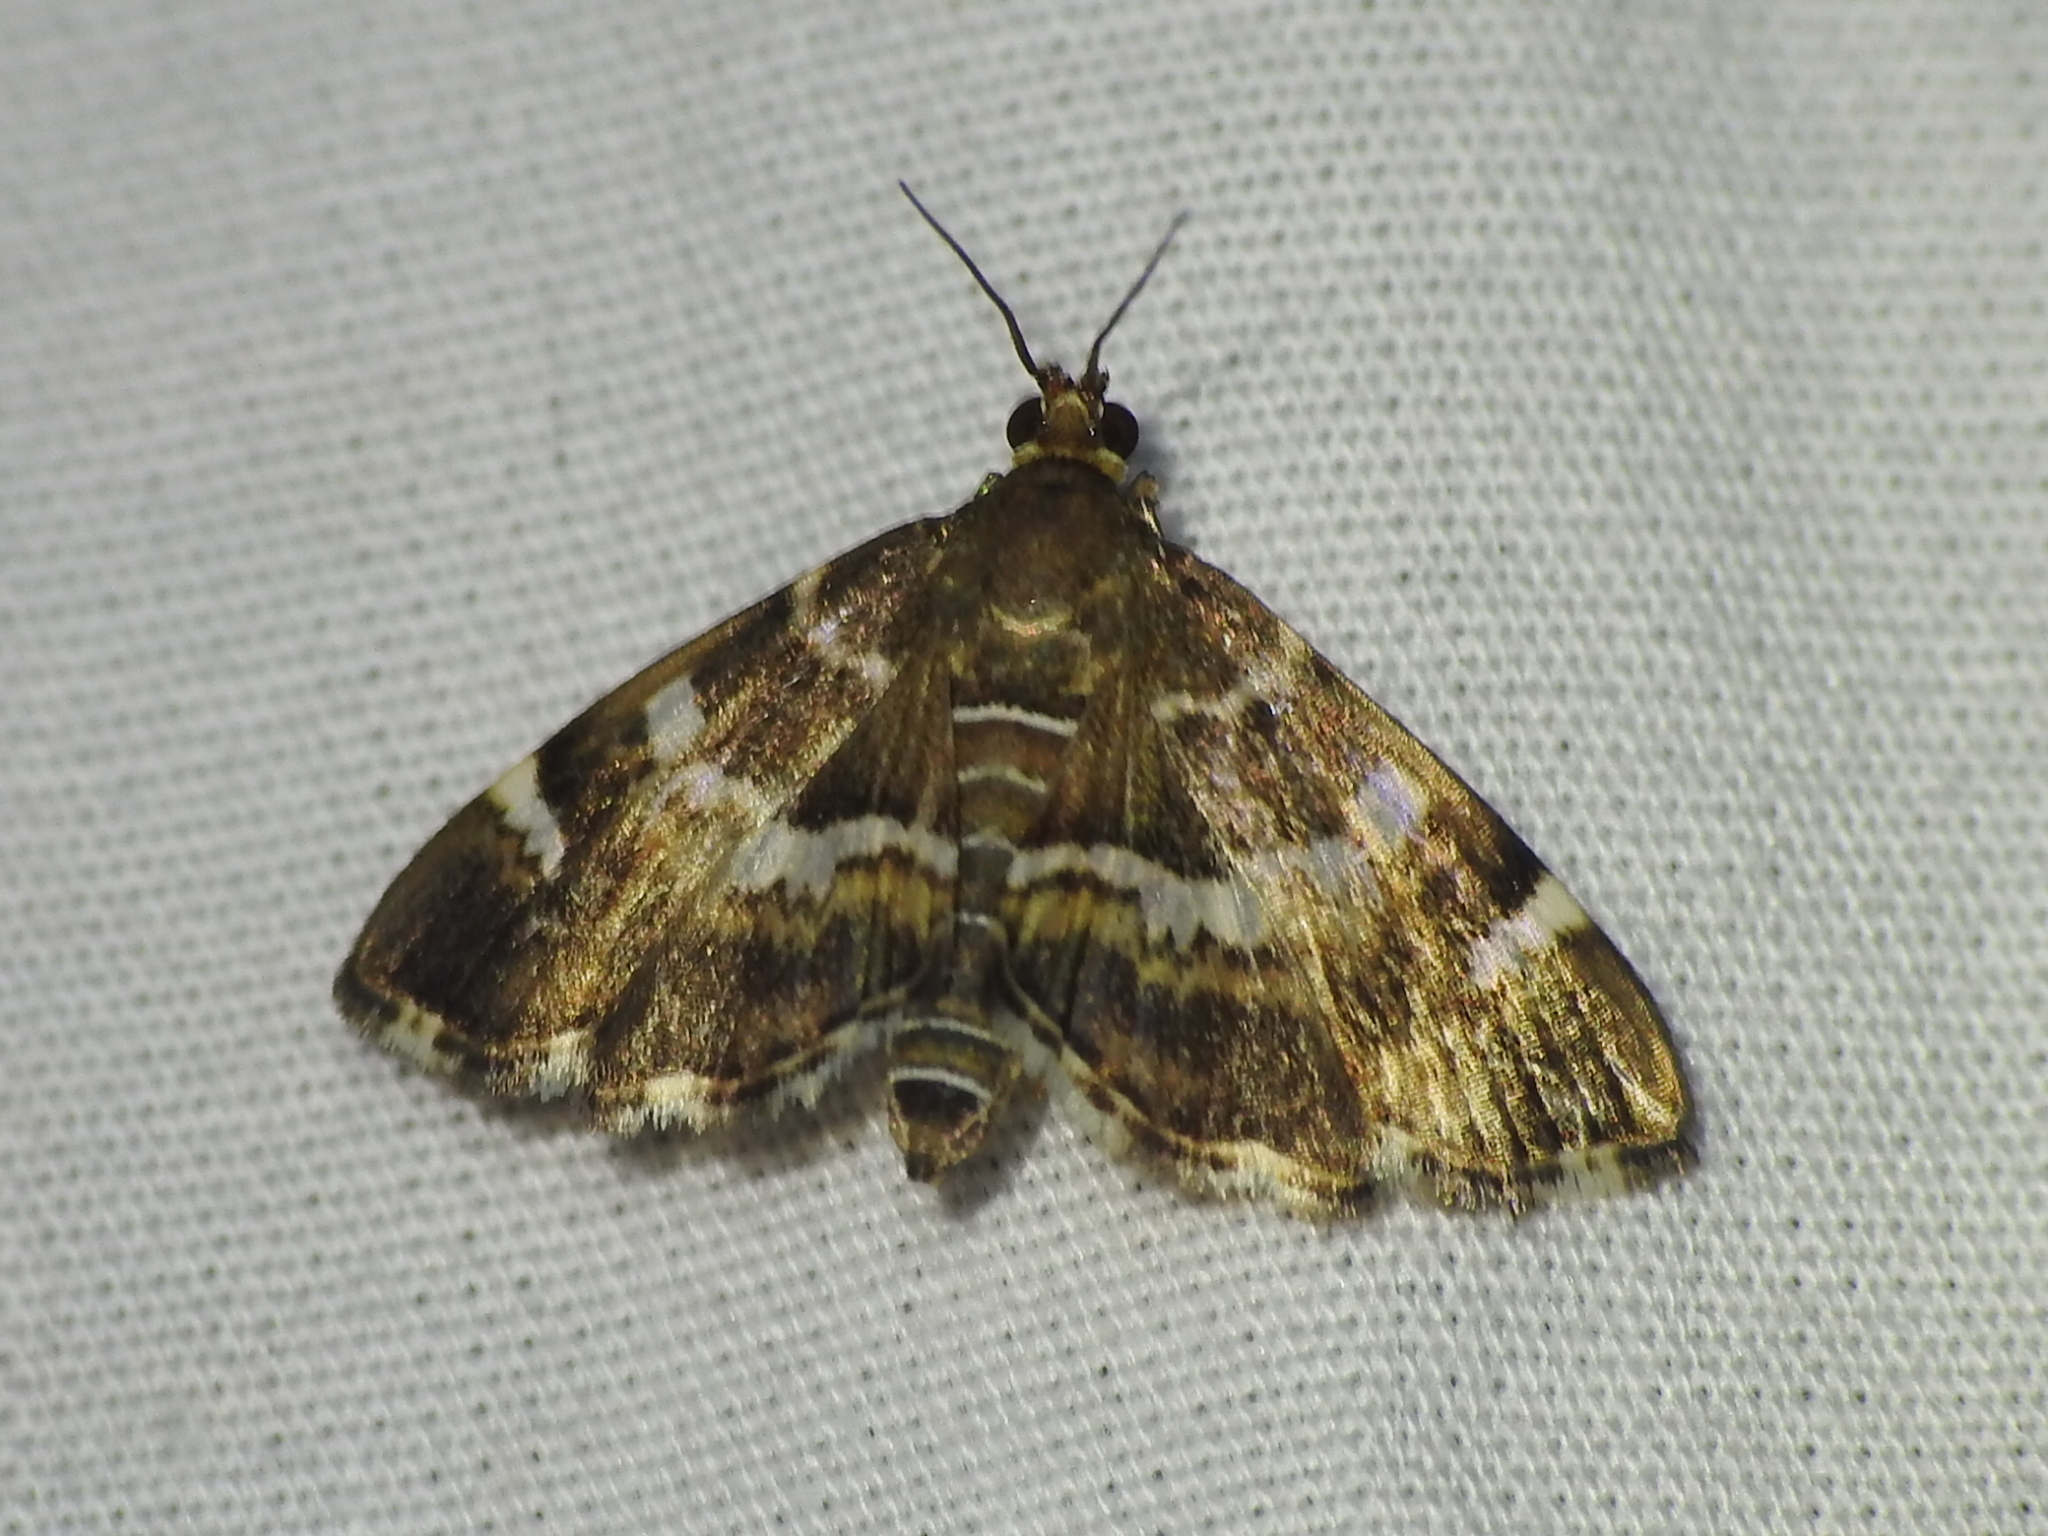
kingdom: Animalia
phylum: Arthropoda
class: Insecta
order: Lepidoptera
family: Crambidae
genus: Hymenia
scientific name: Hymenia perspectalis
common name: Spotted beet webworm
